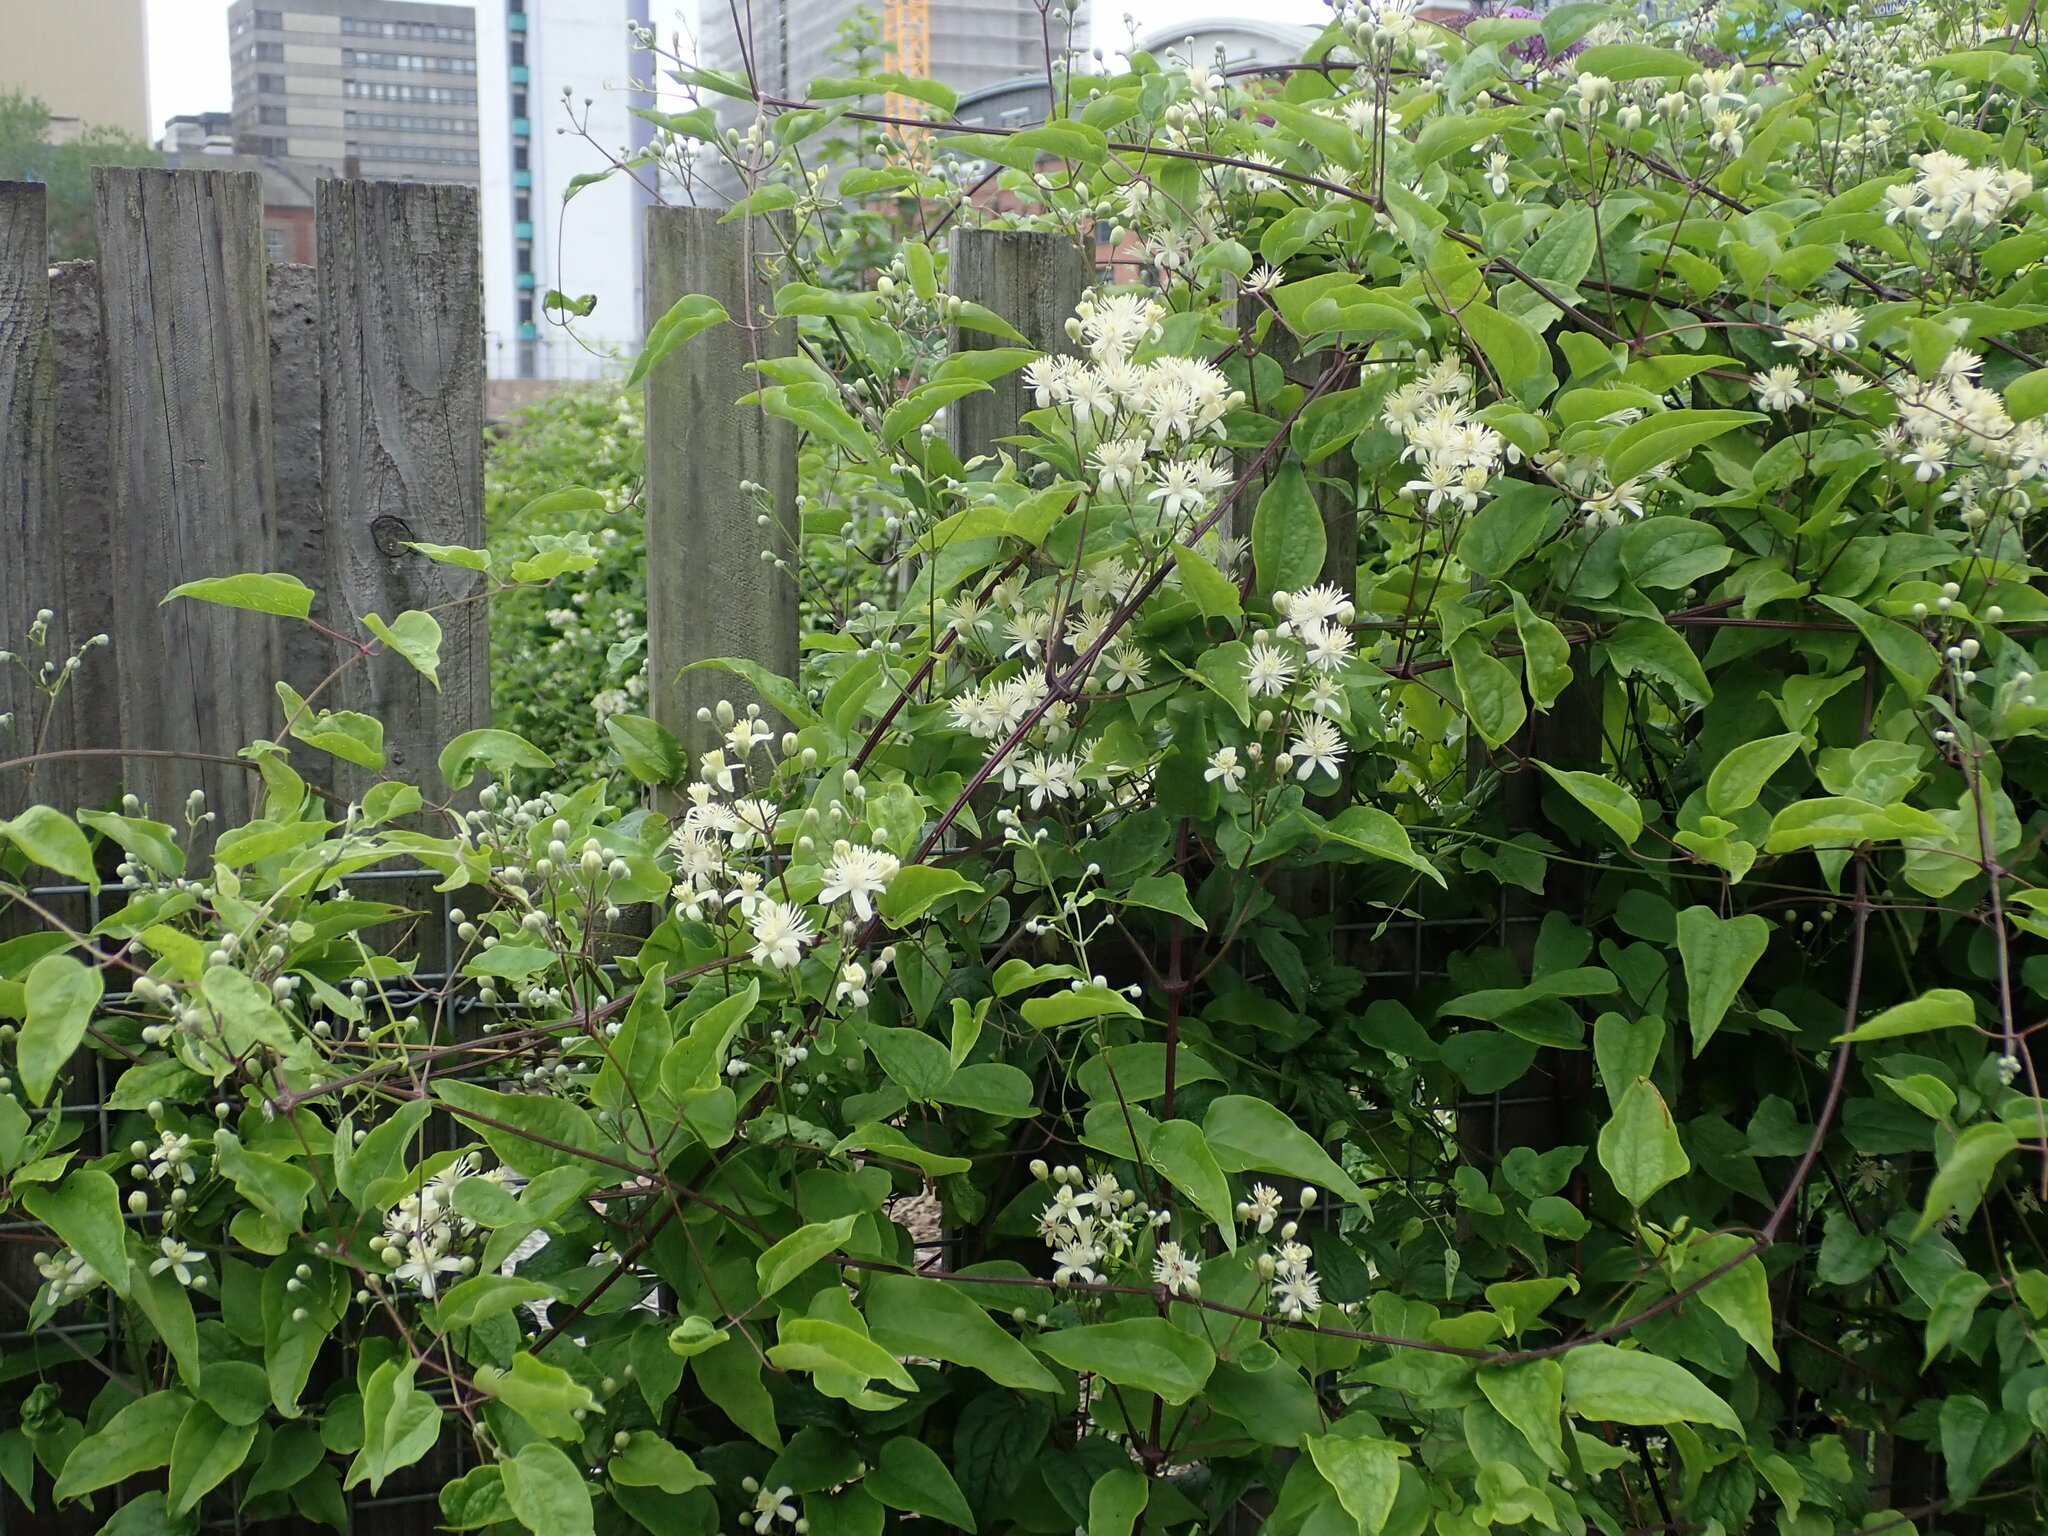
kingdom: Plantae
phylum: Tracheophyta
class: Magnoliopsida
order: Ranunculales
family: Ranunculaceae
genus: Clematis
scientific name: Clematis vitalba
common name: Evergreen clematis
